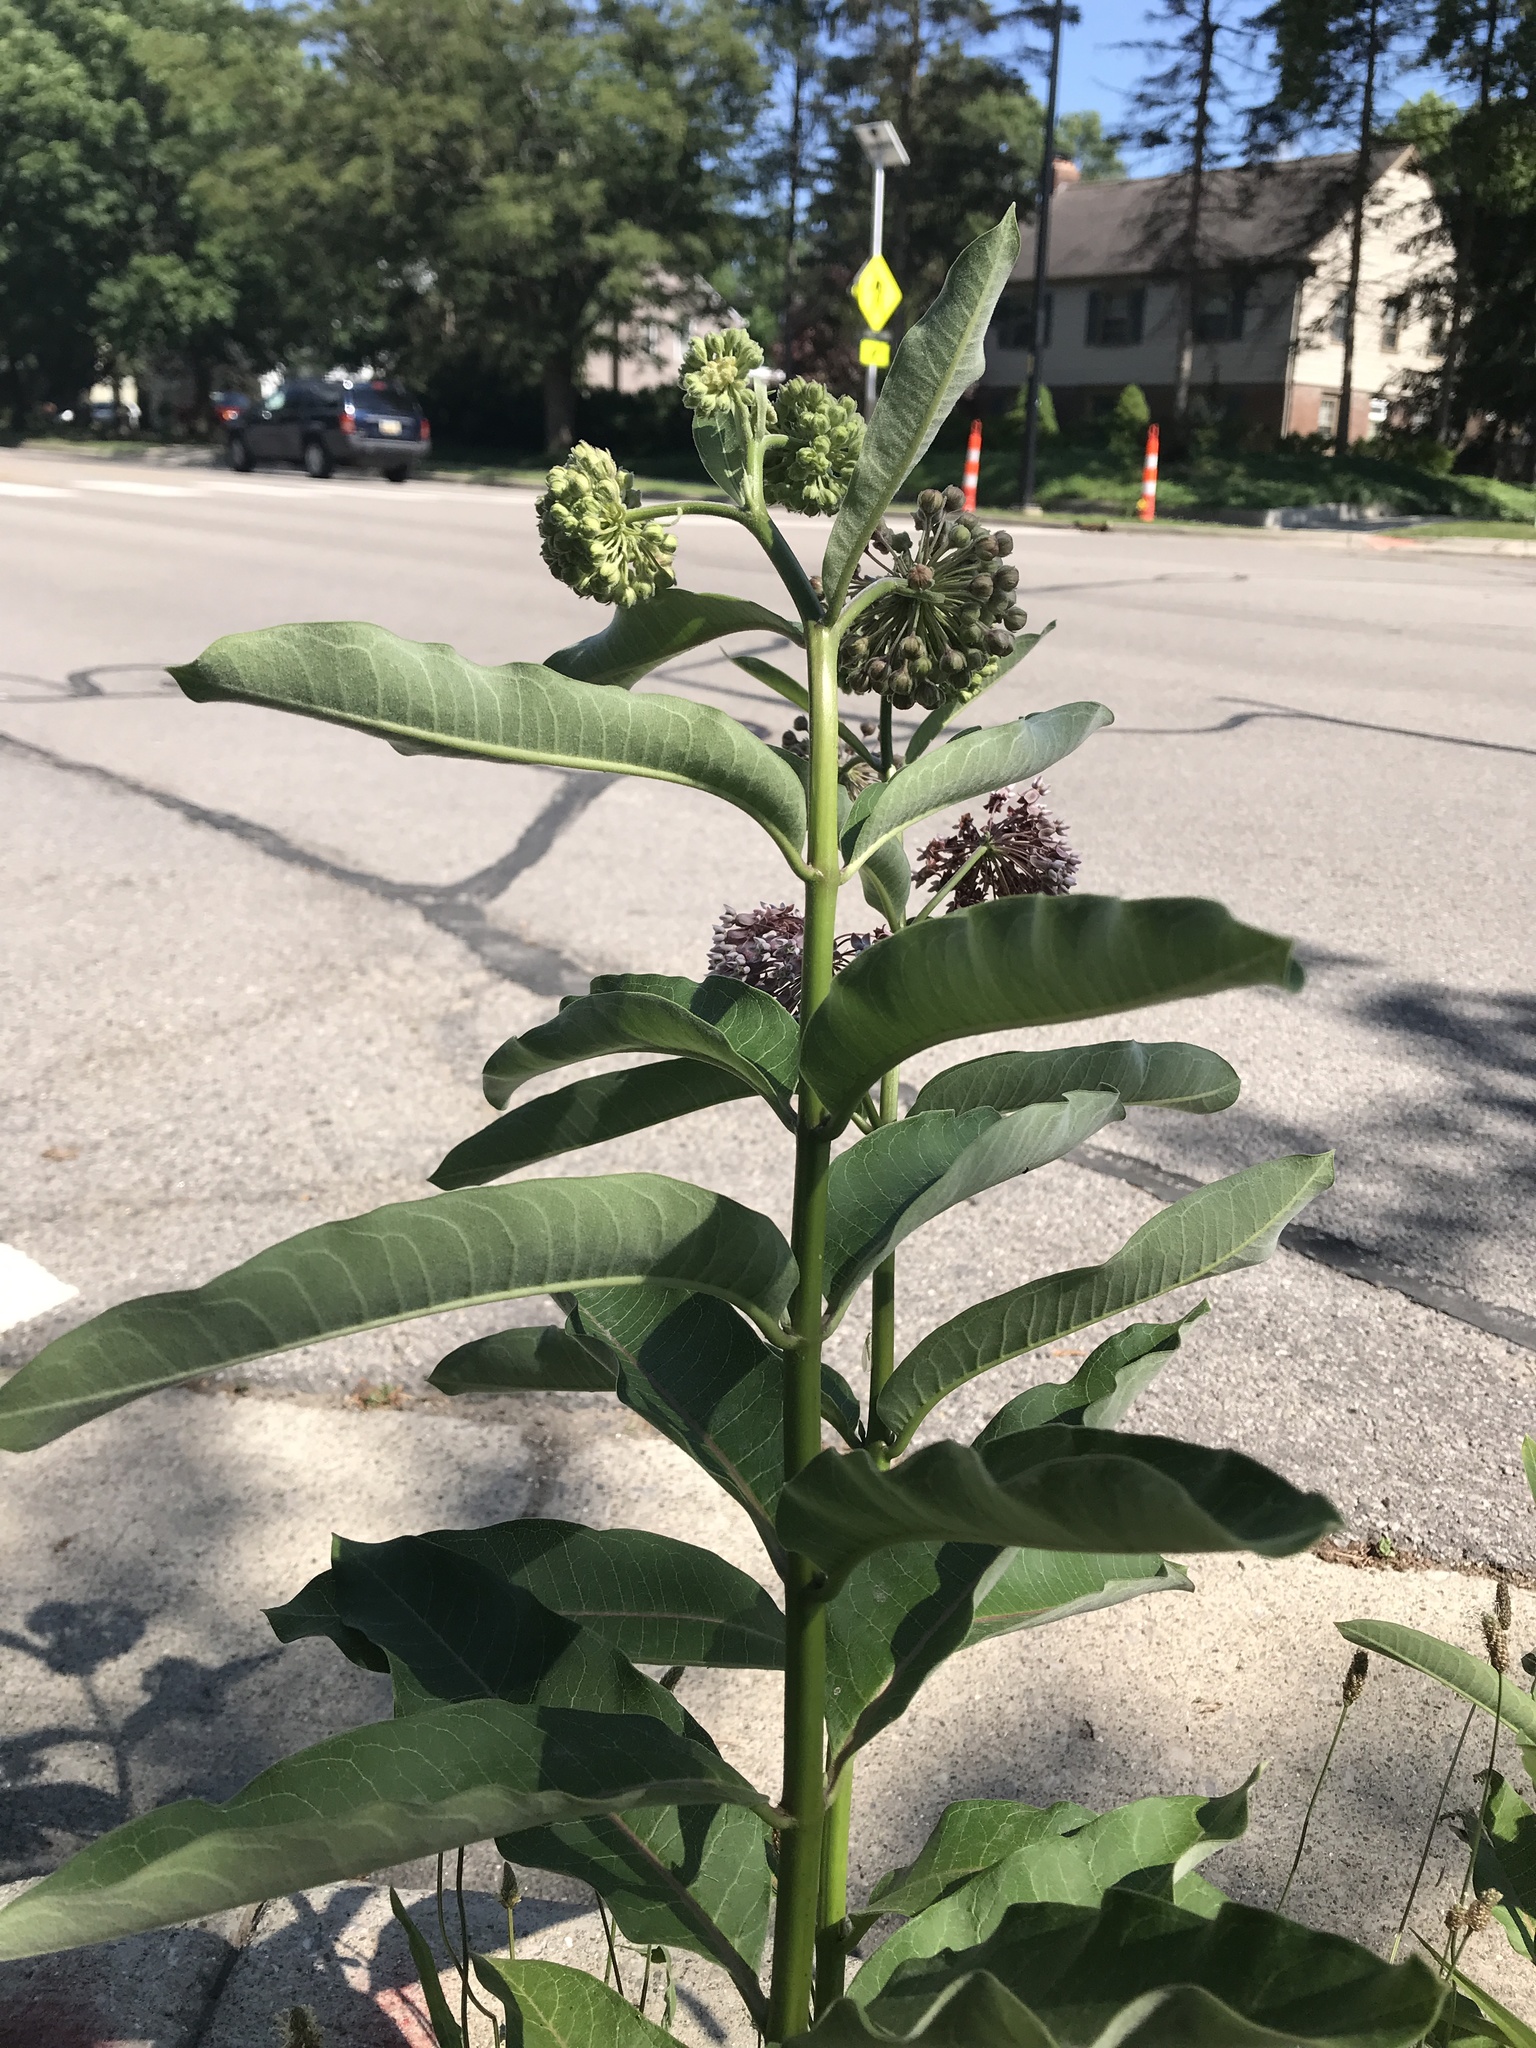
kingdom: Plantae
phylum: Tracheophyta
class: Magnoliopsida
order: Gentianales
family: Apocynaceae
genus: Asclepias
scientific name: Asclepias syriaca
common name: Common milkweed
